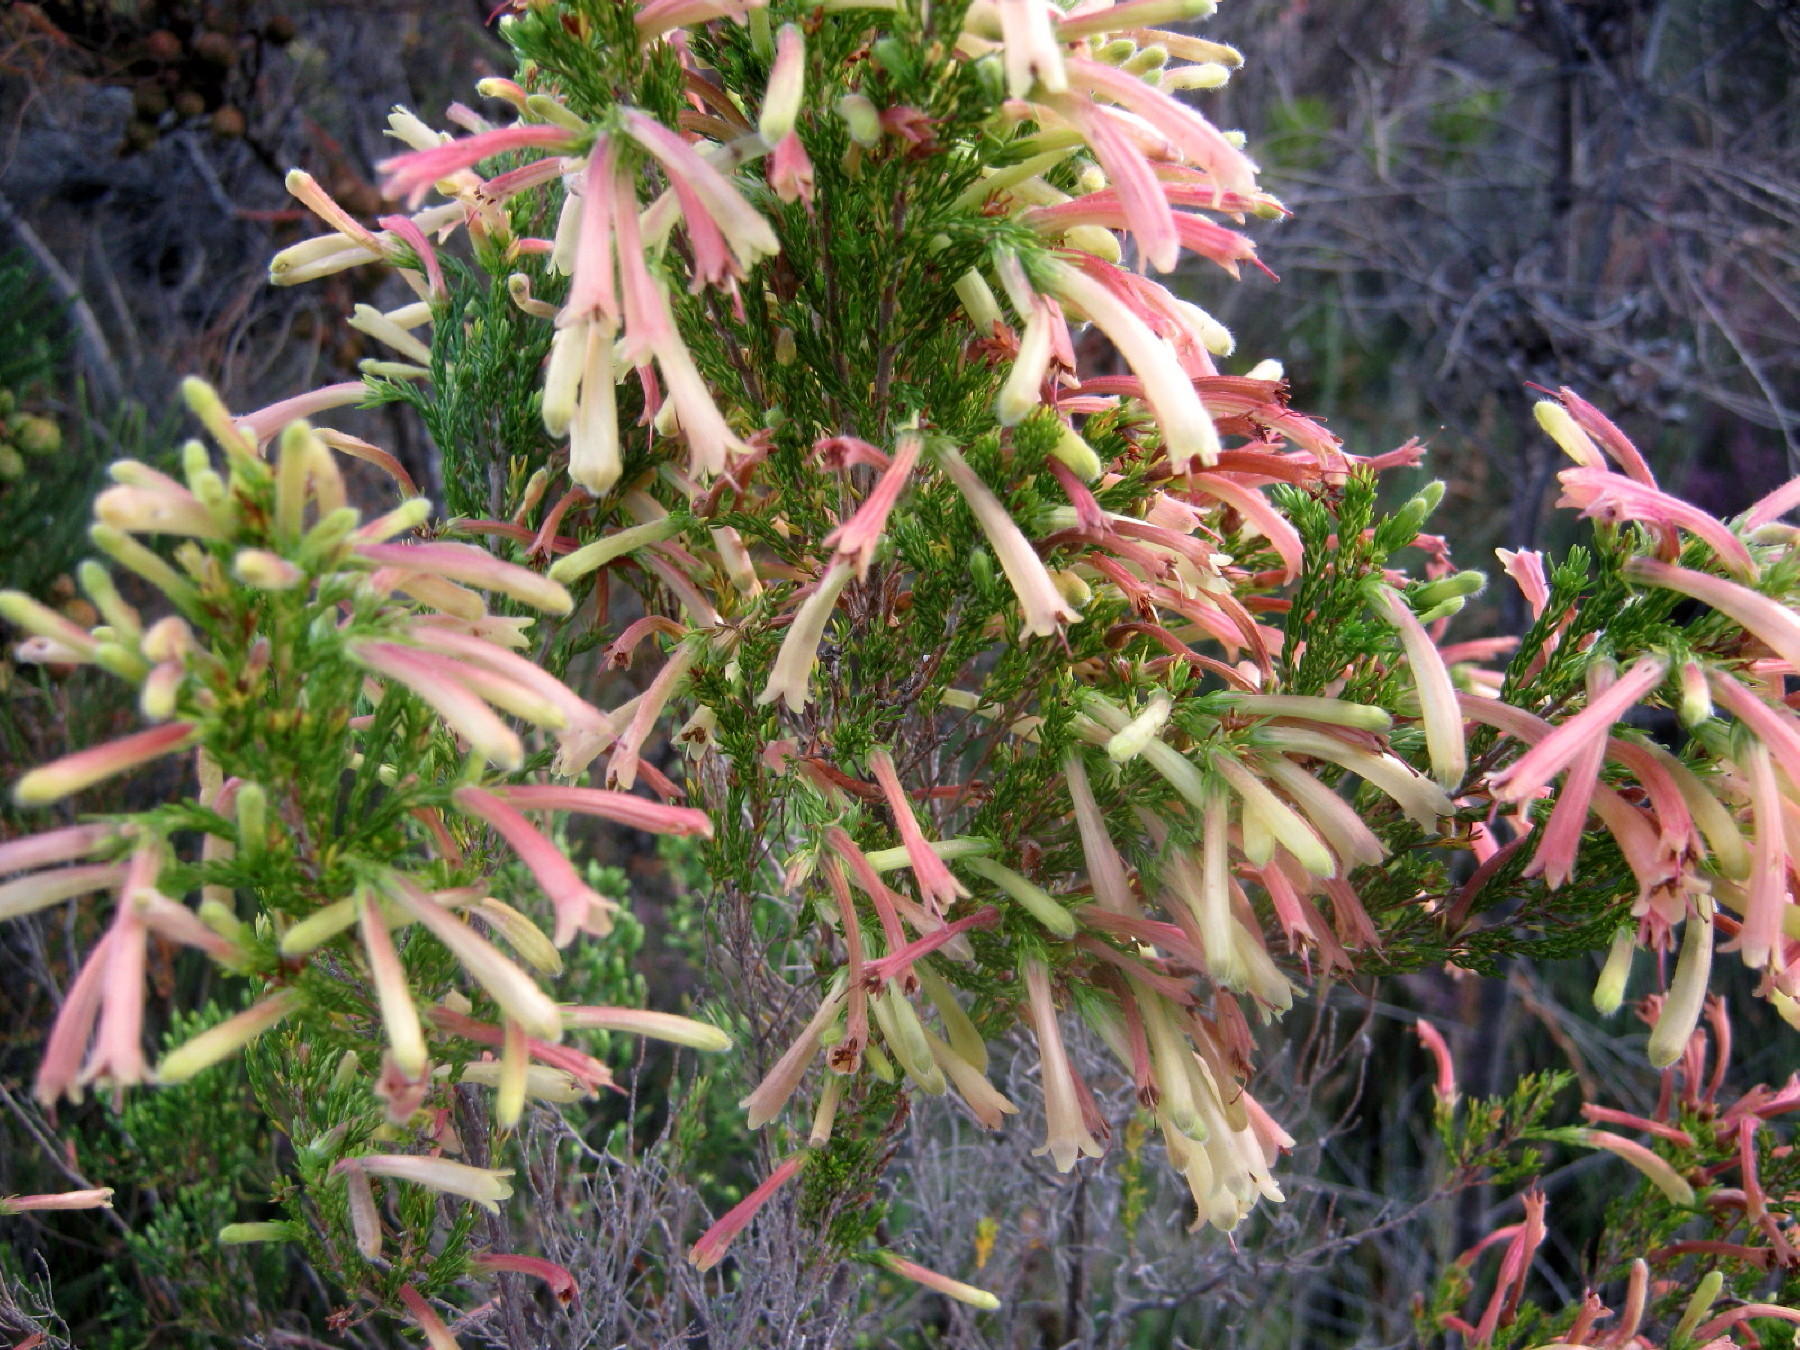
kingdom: Plantae
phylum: Tracheophyta
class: Magnoliopsida
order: Ericales
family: Ericaceae
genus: Erica
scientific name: Erica curviflora
